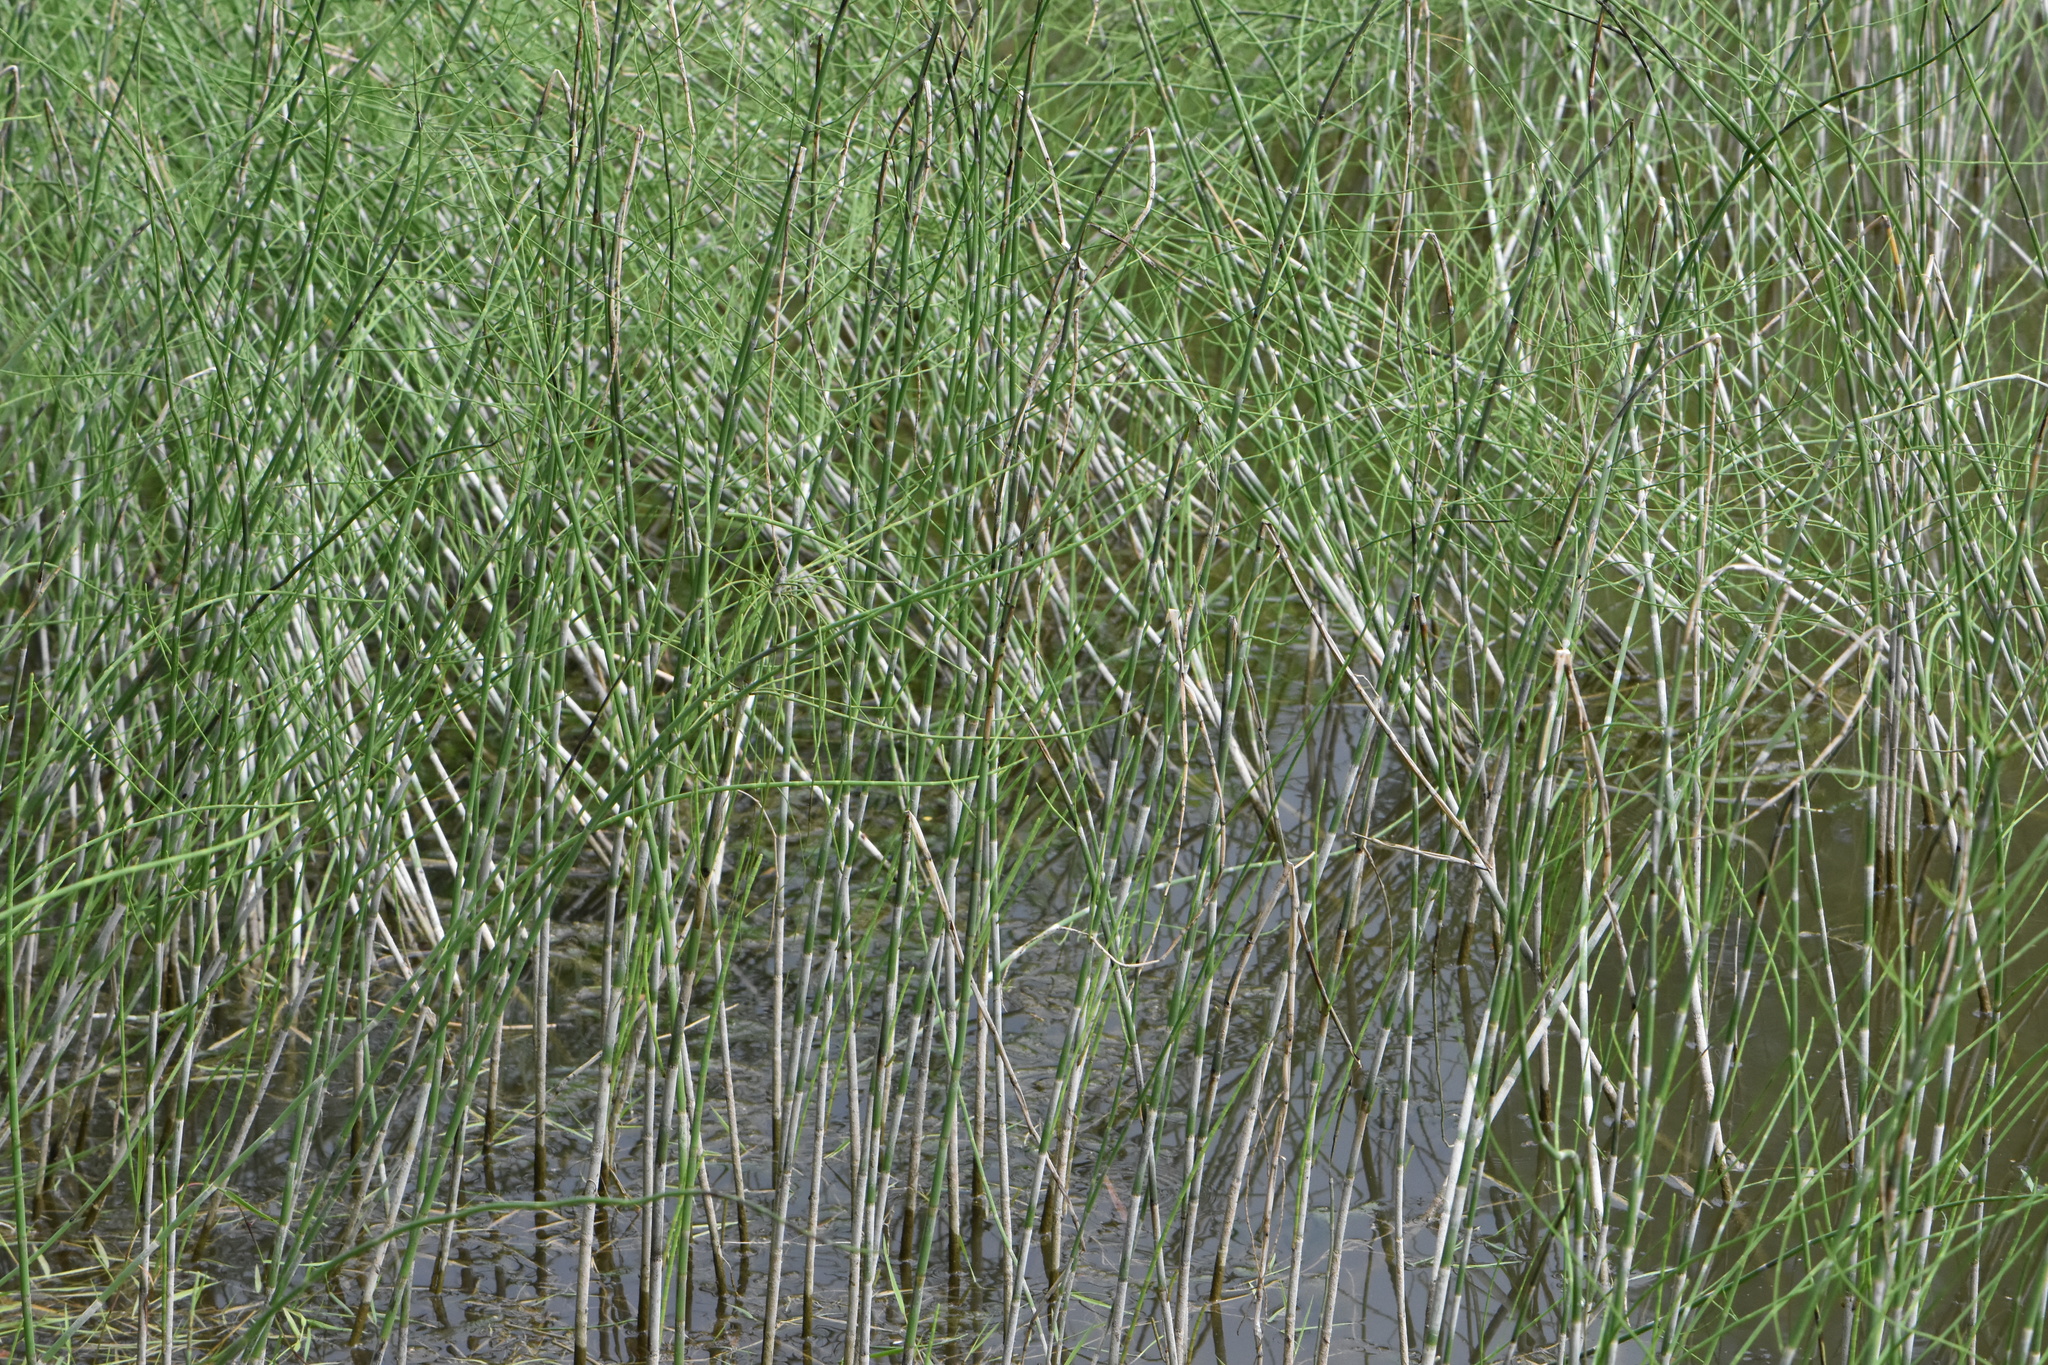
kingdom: Plantae
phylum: Tracheophyta
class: Polypodiopsida
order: Equisetales
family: Equisetaceae
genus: Equisetum
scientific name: Equisetum fluviatile
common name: Water horsetail
